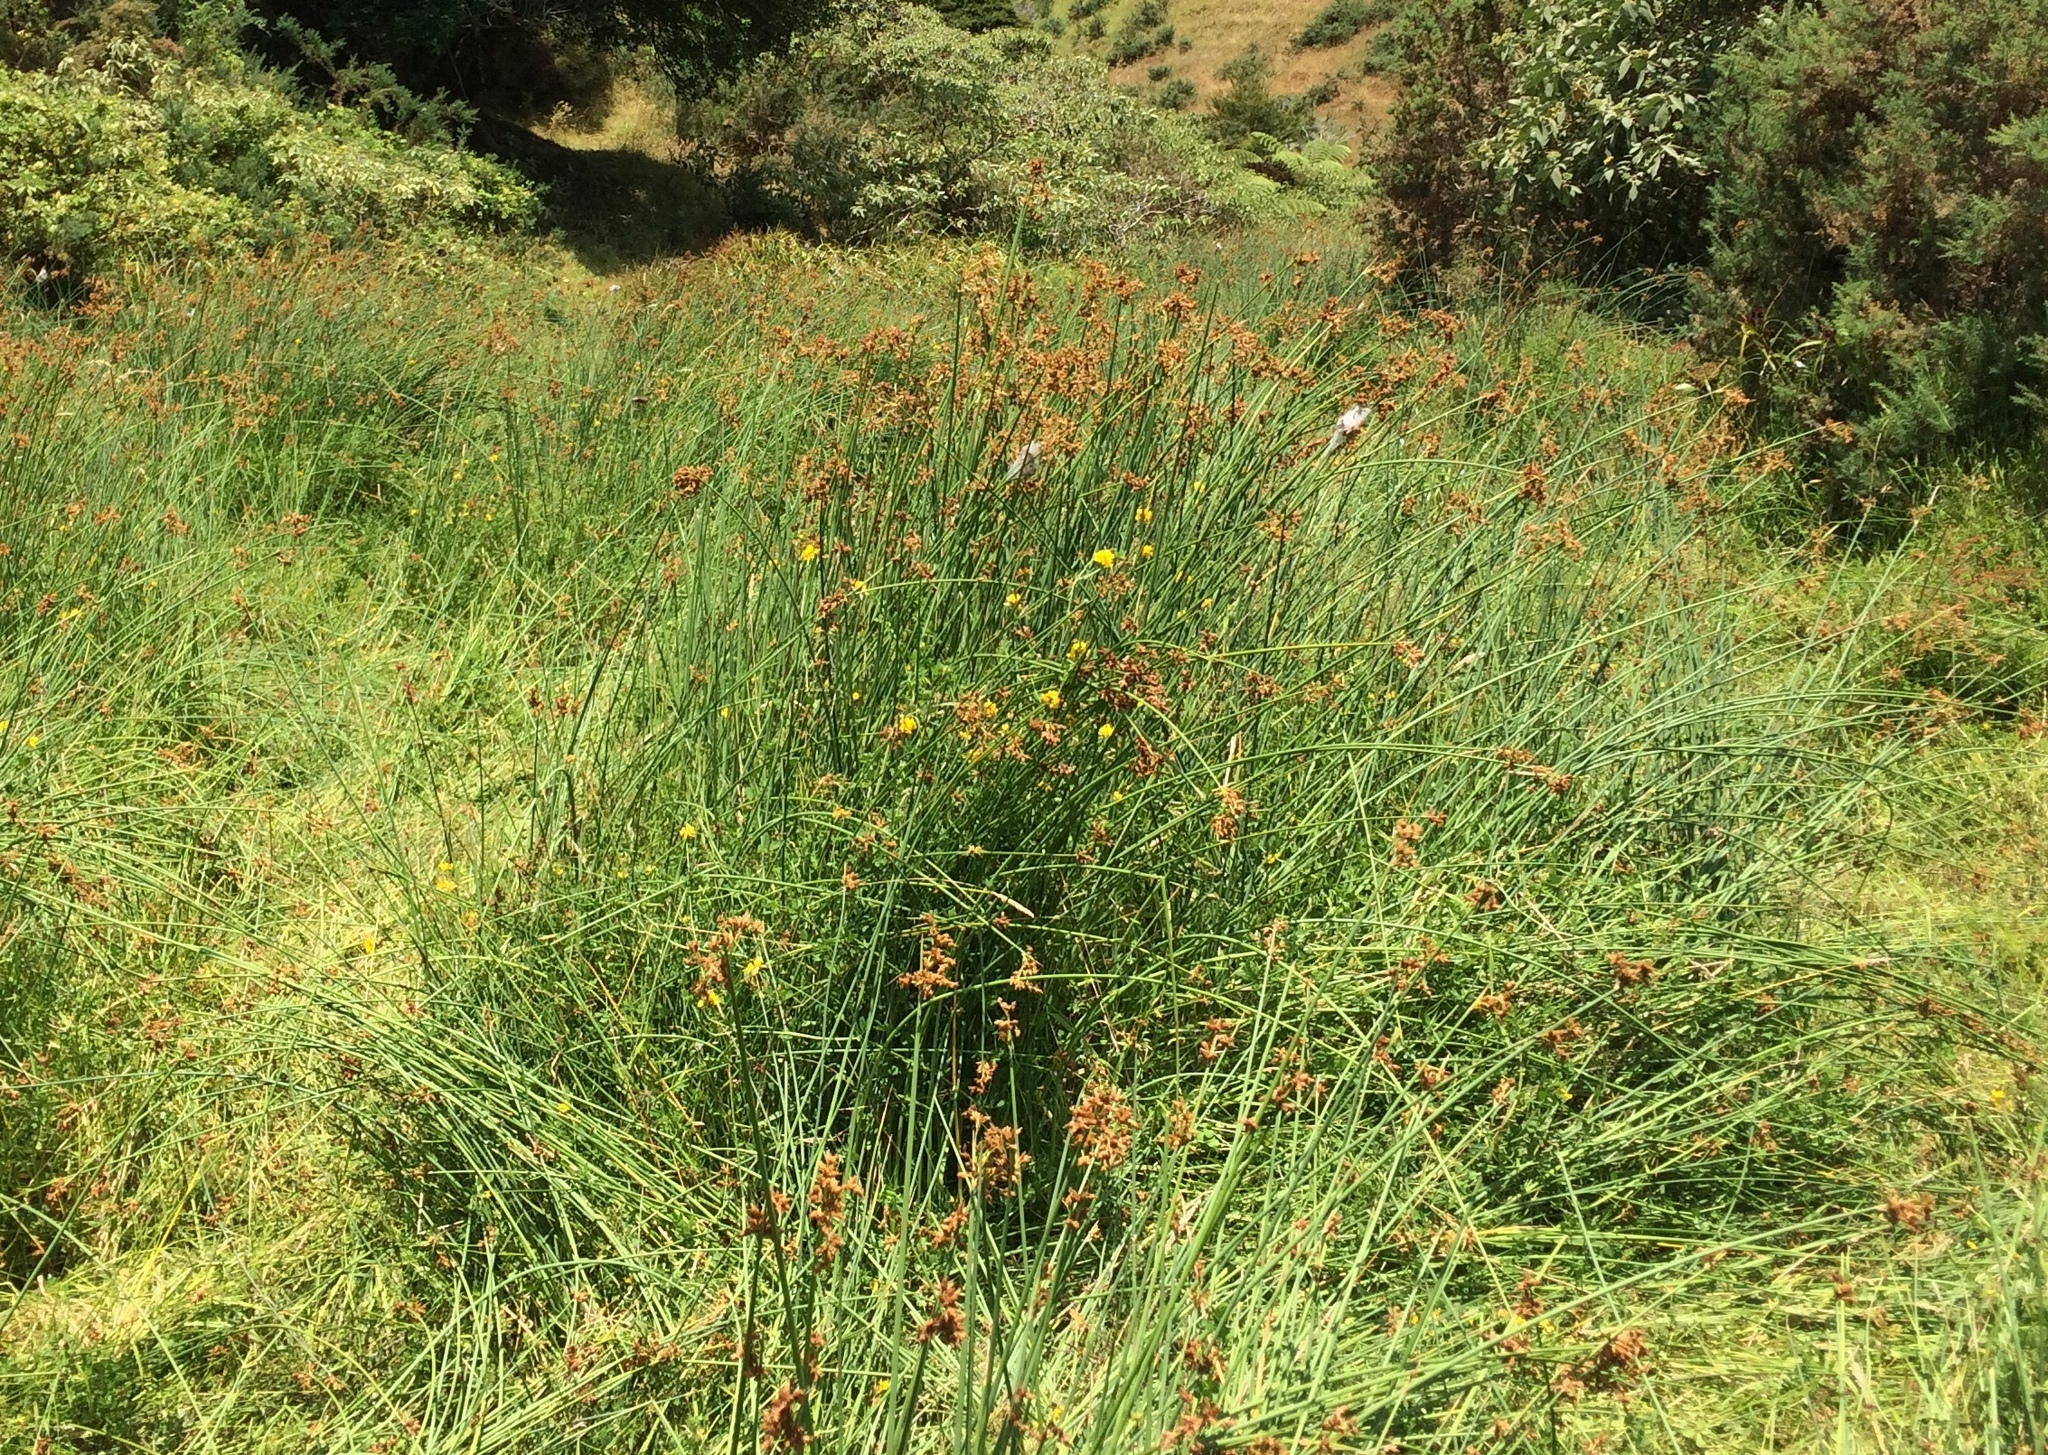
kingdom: Plantae
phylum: Tracheophyta
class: Liliopsida
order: Poales
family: Cyperaceae
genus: Schoenoplectus
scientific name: Schoenoplectus tabernaemontani
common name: Grey club-rush
